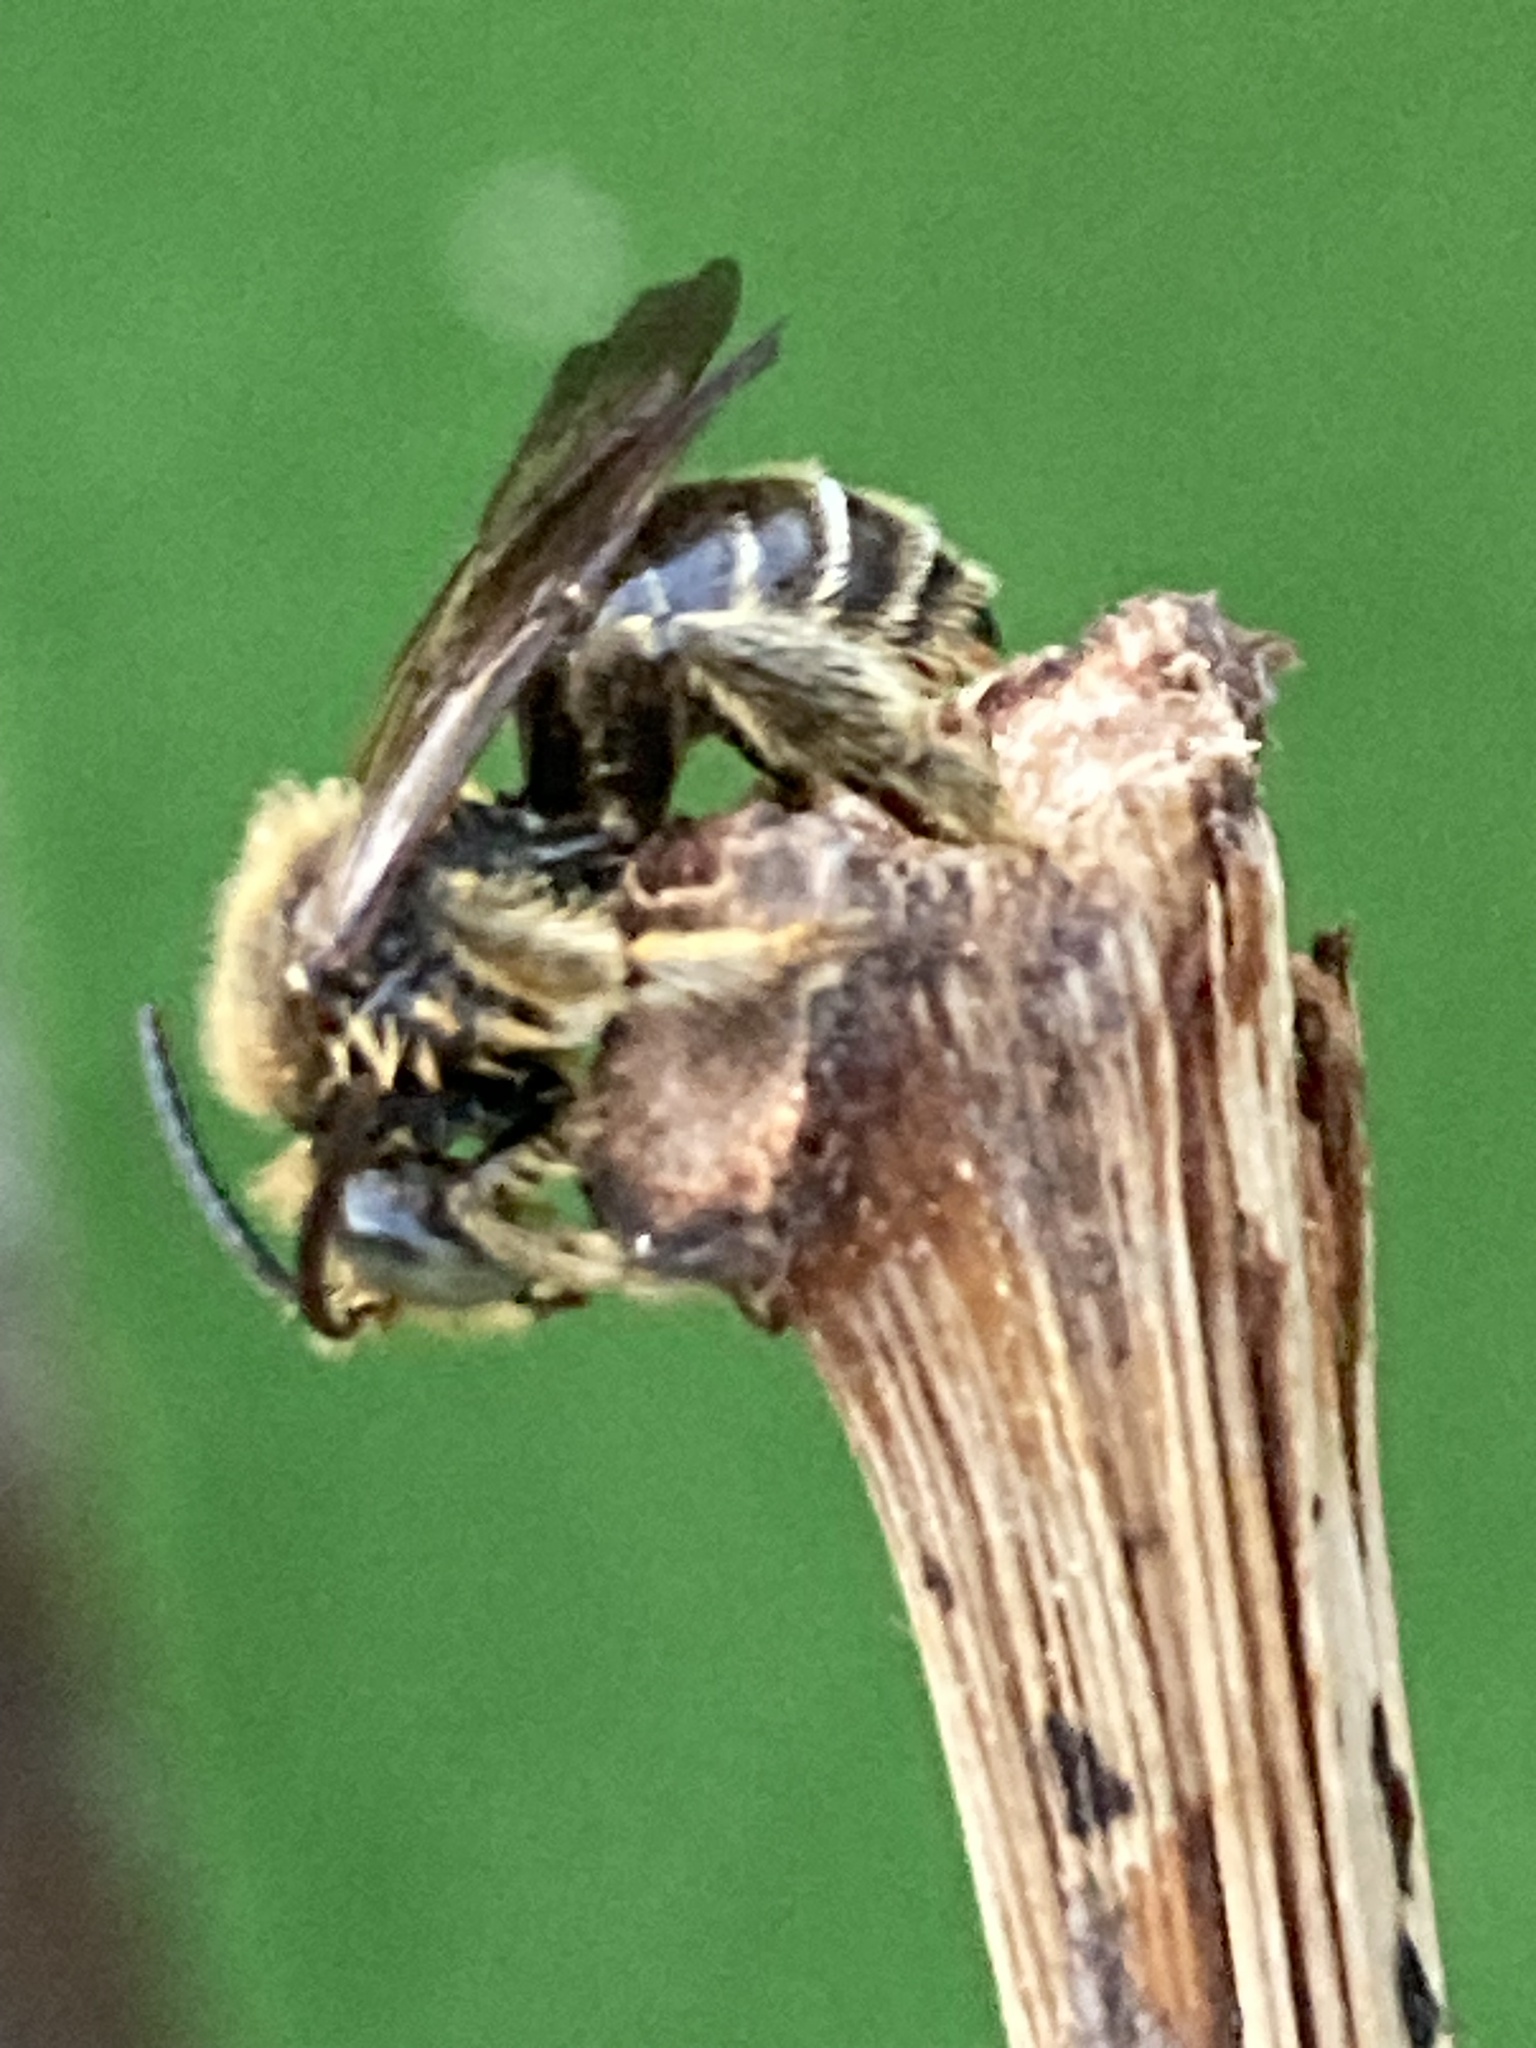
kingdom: Animalia
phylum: Arthropoda
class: Insecta
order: Hymenoptera
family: Melittidae
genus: Macropis
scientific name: Macropis fulvipes
